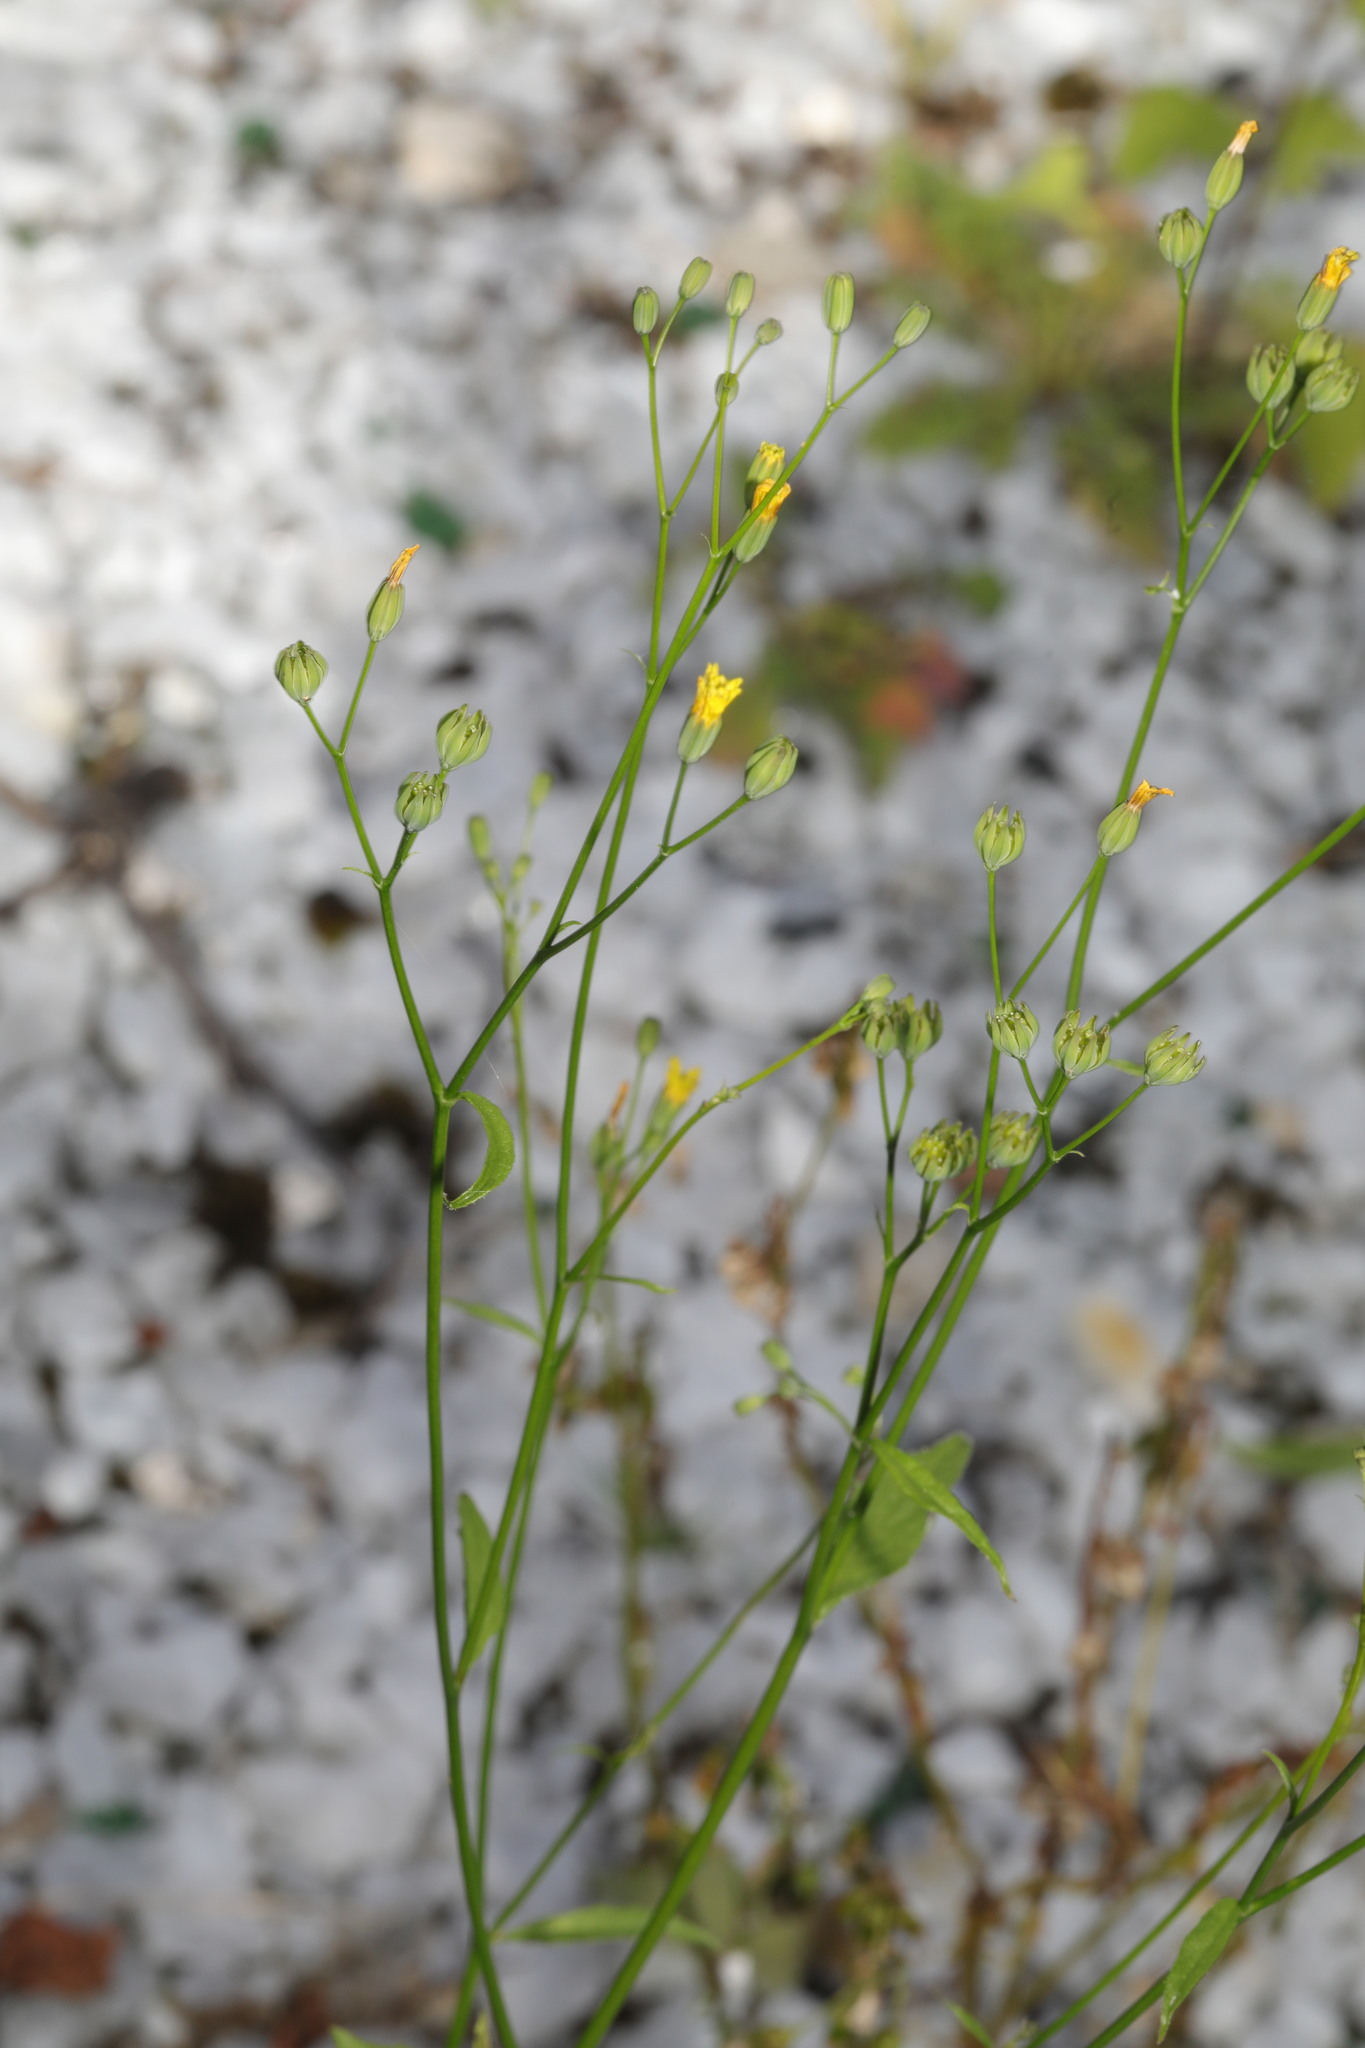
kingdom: Plantae
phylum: Tracheophyta
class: Magnoliopsida
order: Asterales
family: Asteraceae
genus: Lapsana
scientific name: Lapsana communis
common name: Nipplewort
